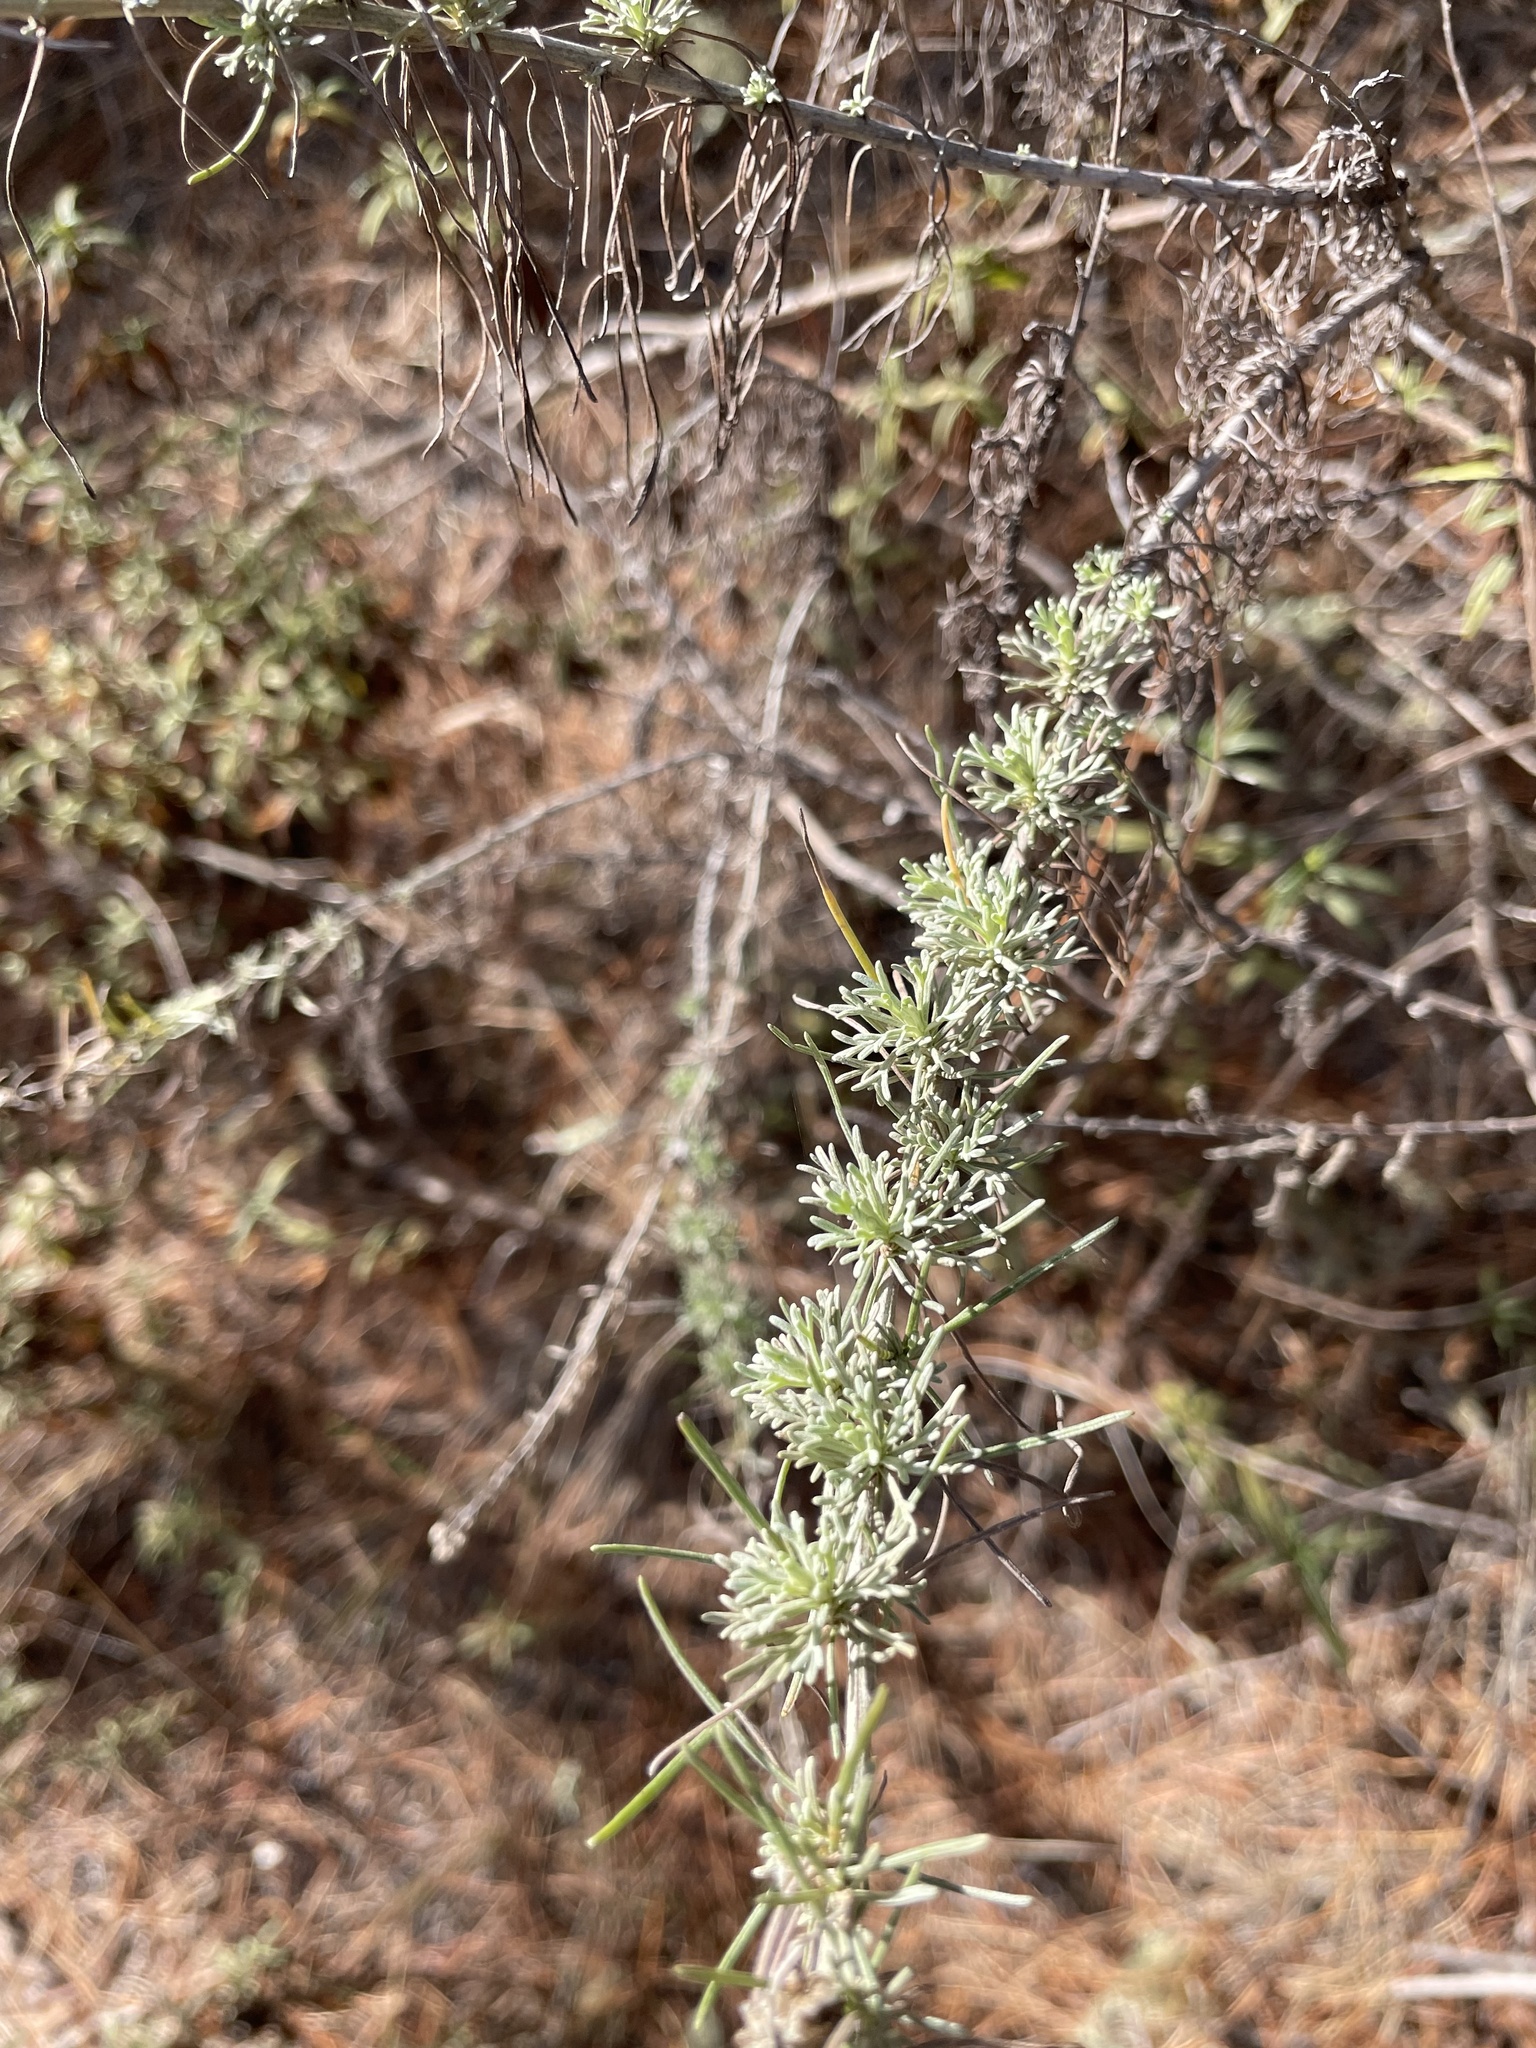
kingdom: Animalia
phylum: Arthropoda
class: Insecta
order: Diptera
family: Cecidomyiidae
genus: Rhopalomyia
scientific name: Rhopalomyia floccosa
